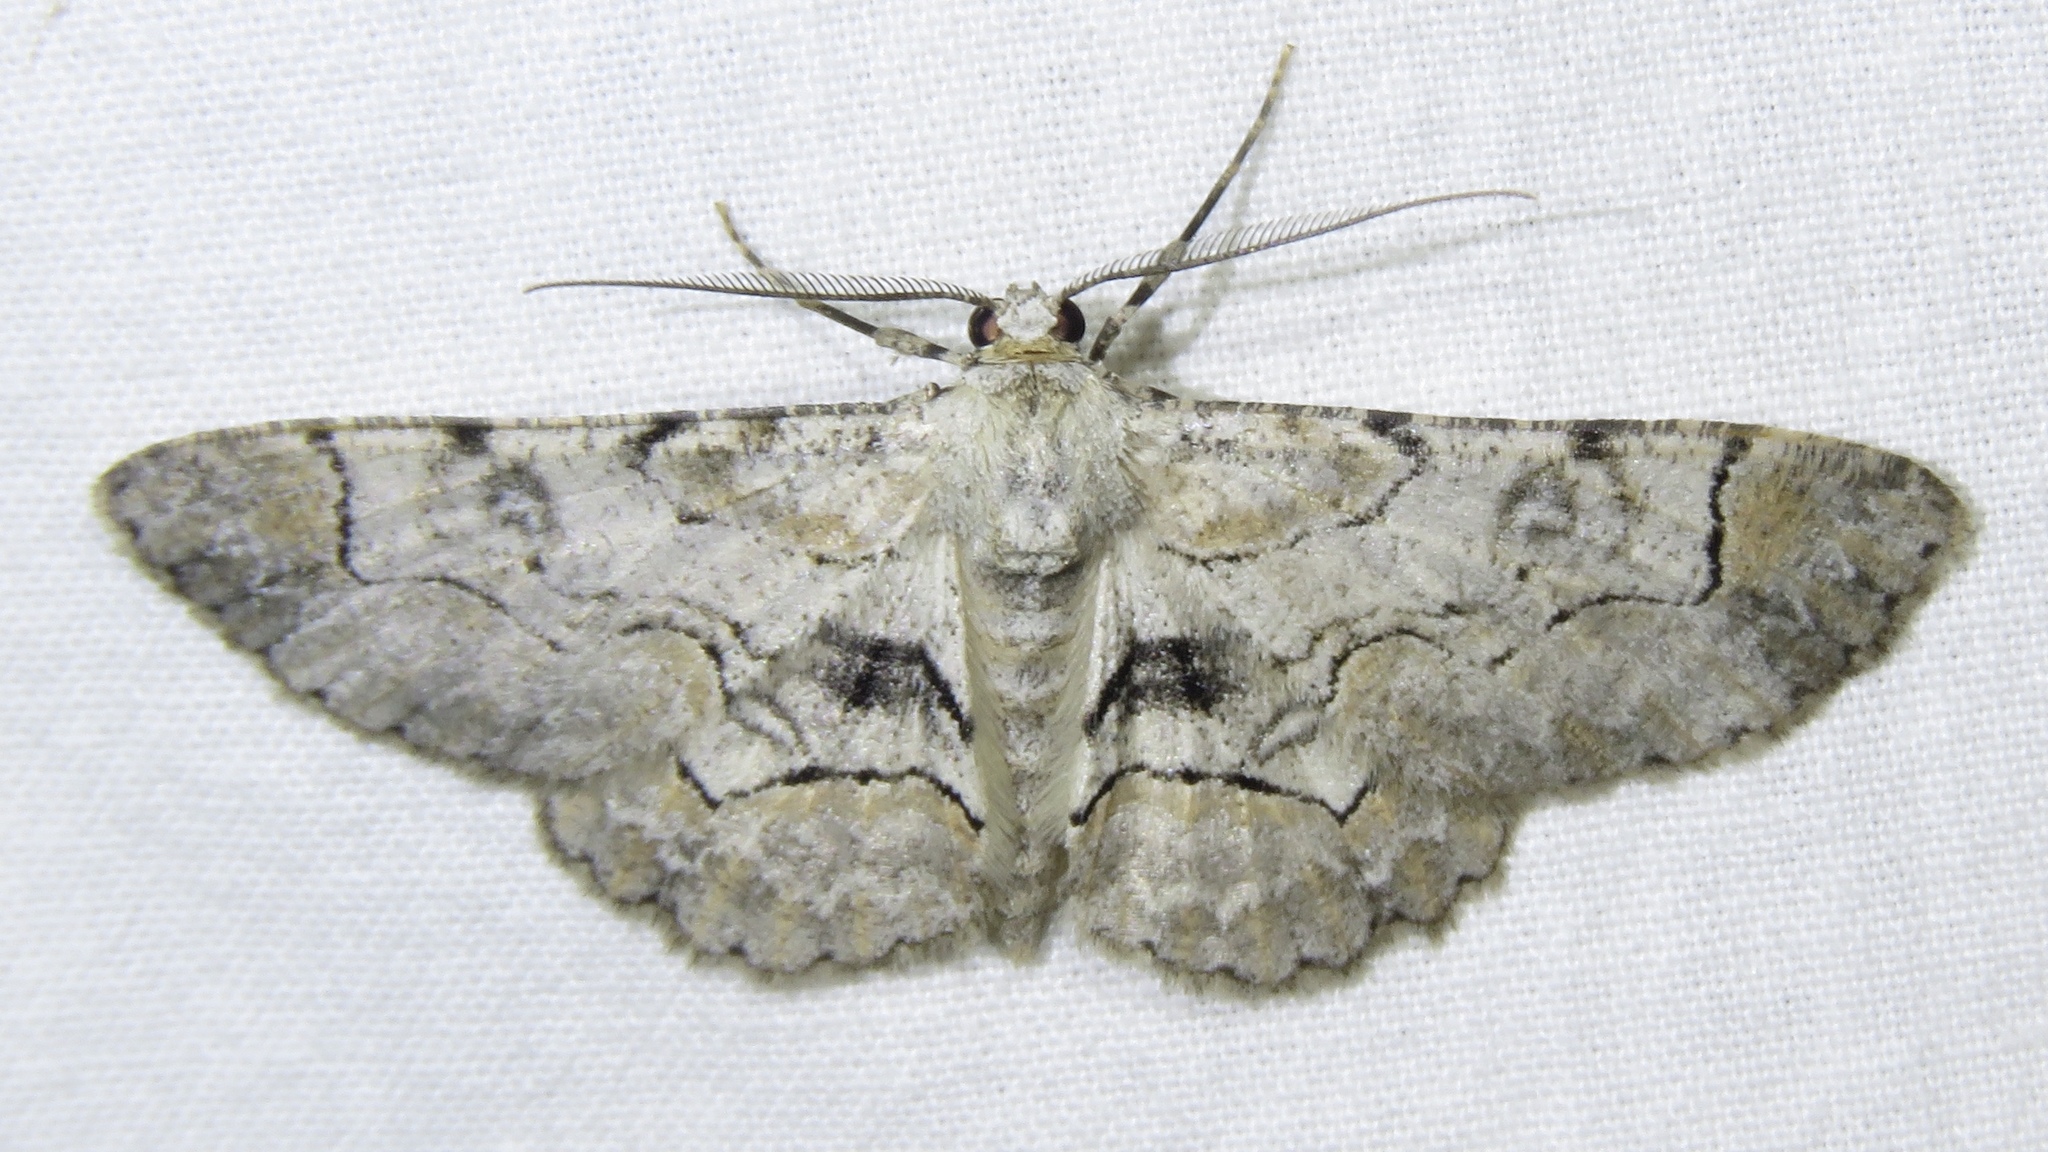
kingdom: Animalia
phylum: Arthropoda
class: Insecta
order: Lepidoptera
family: Geometridae
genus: Iridopsis
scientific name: Iridopsis larvaria
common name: Bent-line gray
